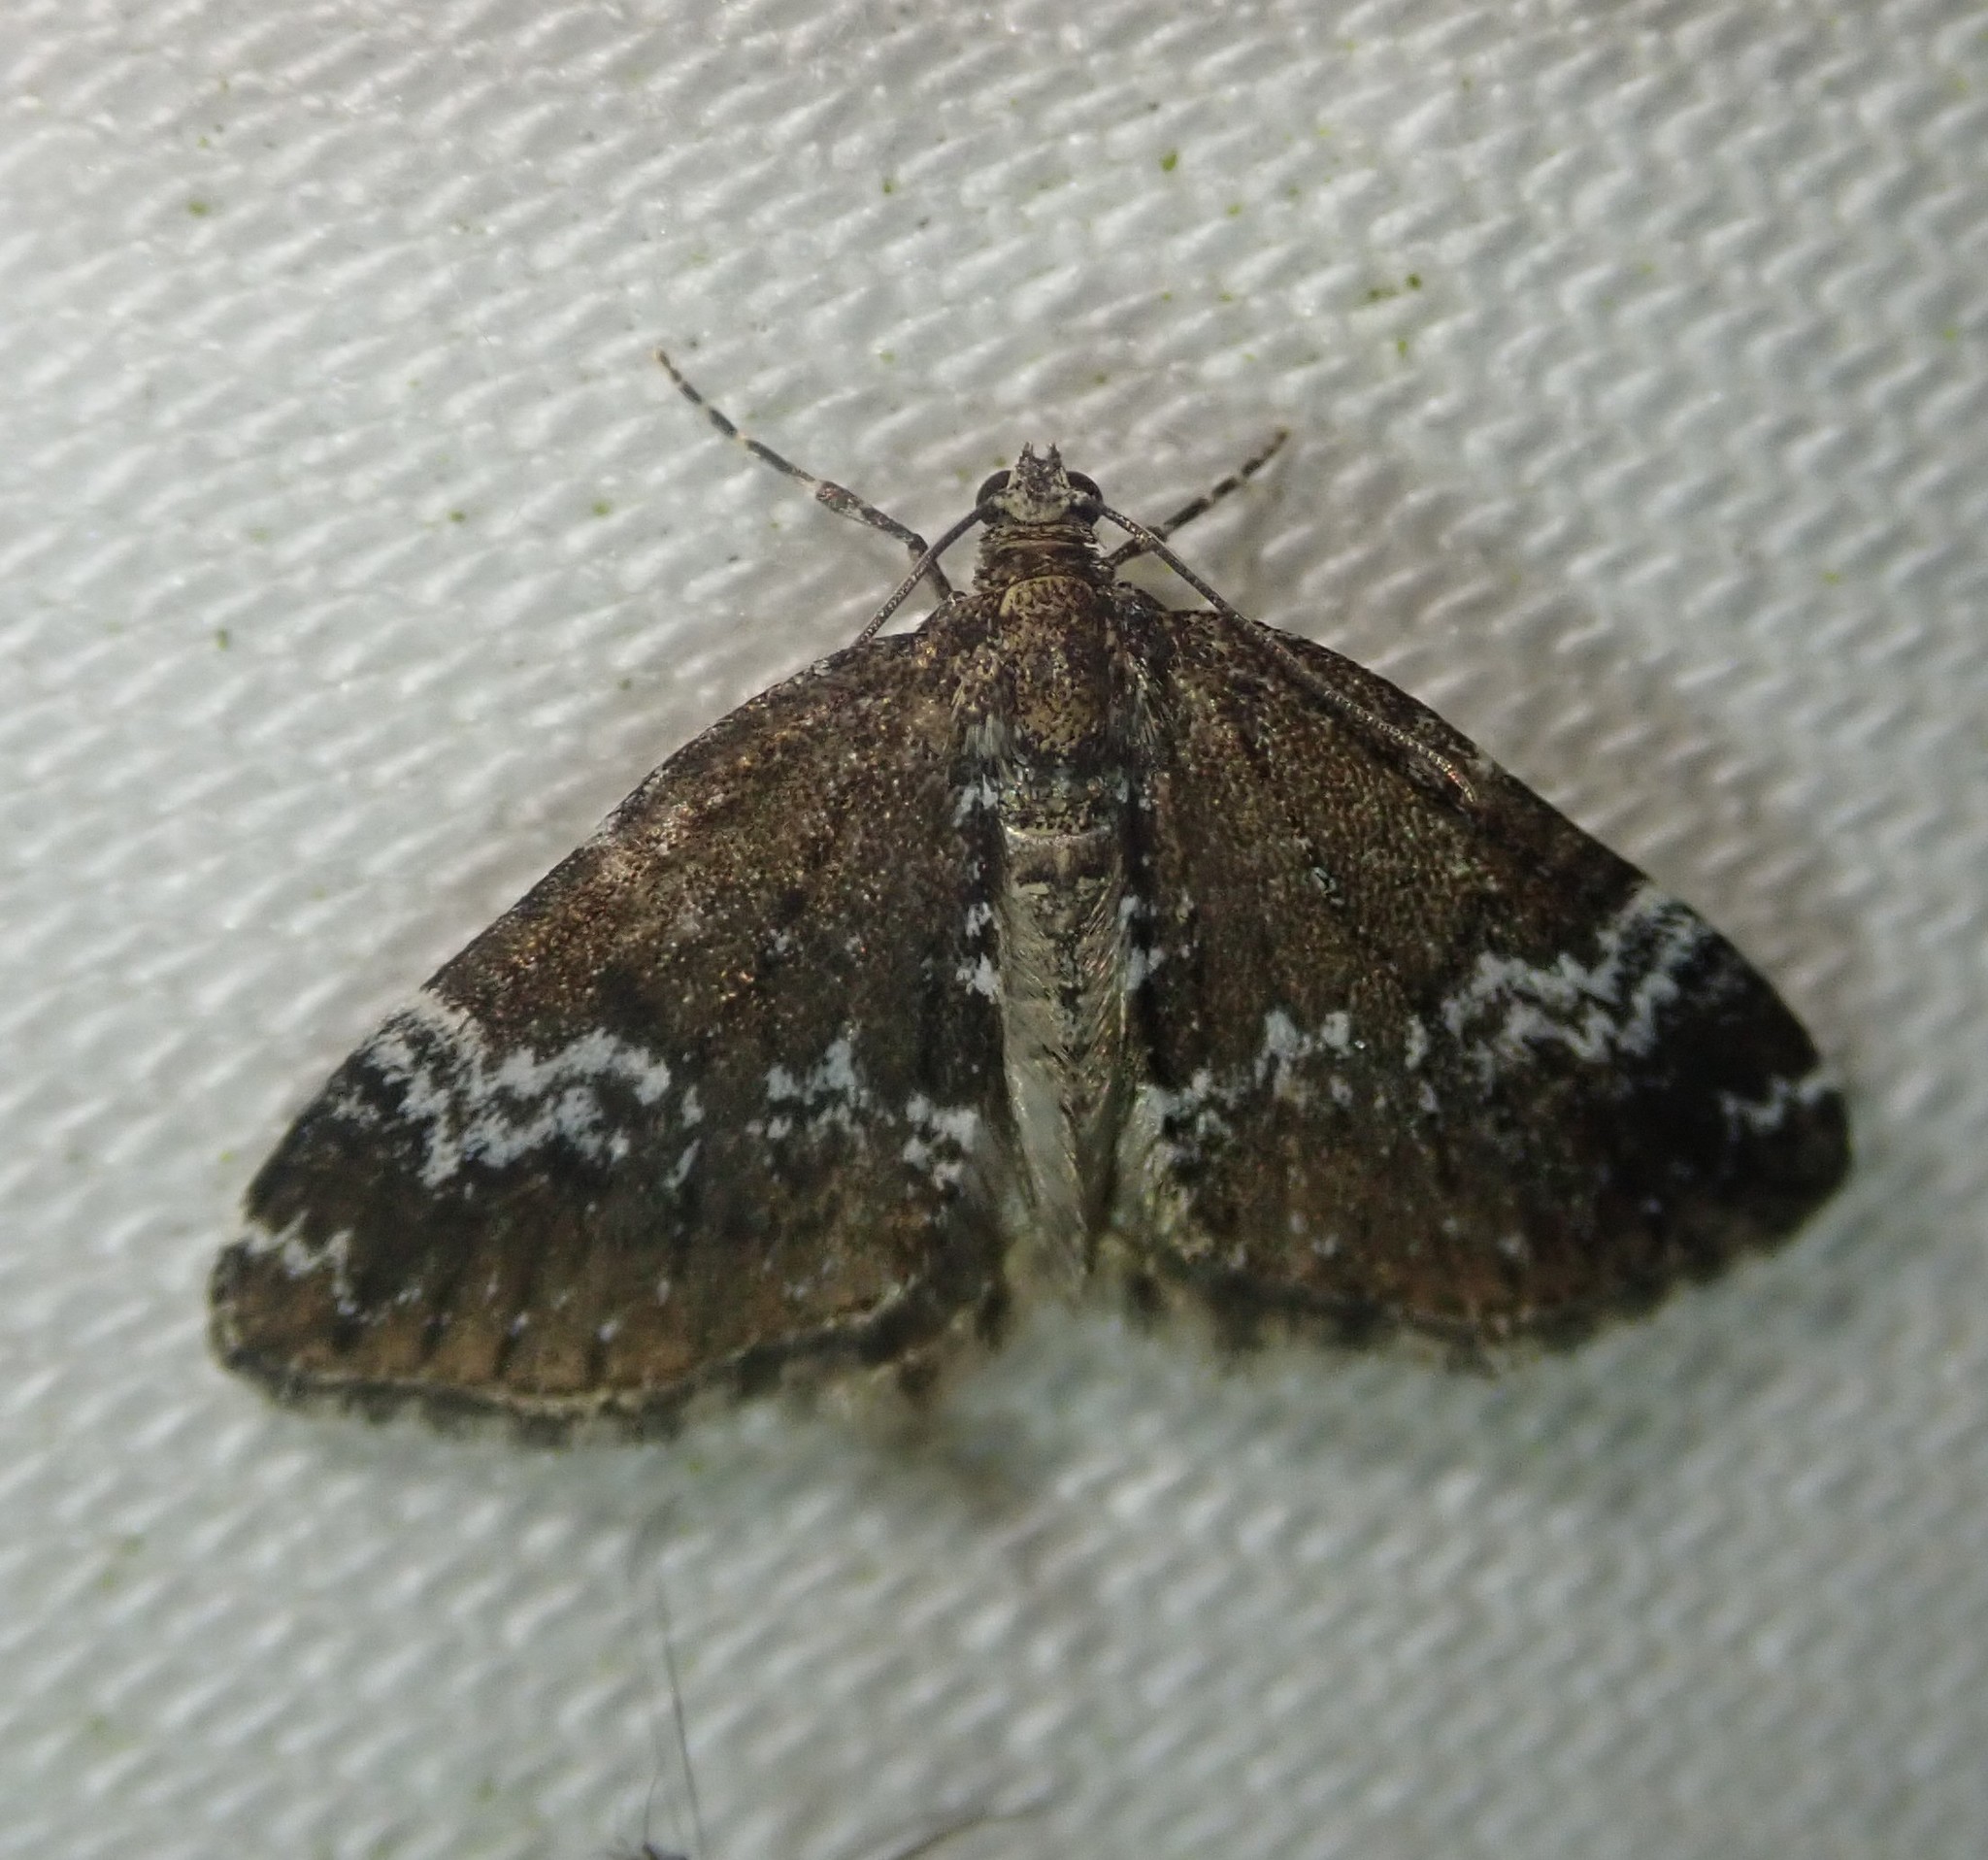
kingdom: Animalia
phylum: Arthropoda
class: Insecta
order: Lepidoptera
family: Geometridae
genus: Perizoma
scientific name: Perizoma alchemillata
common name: Small rivulet
